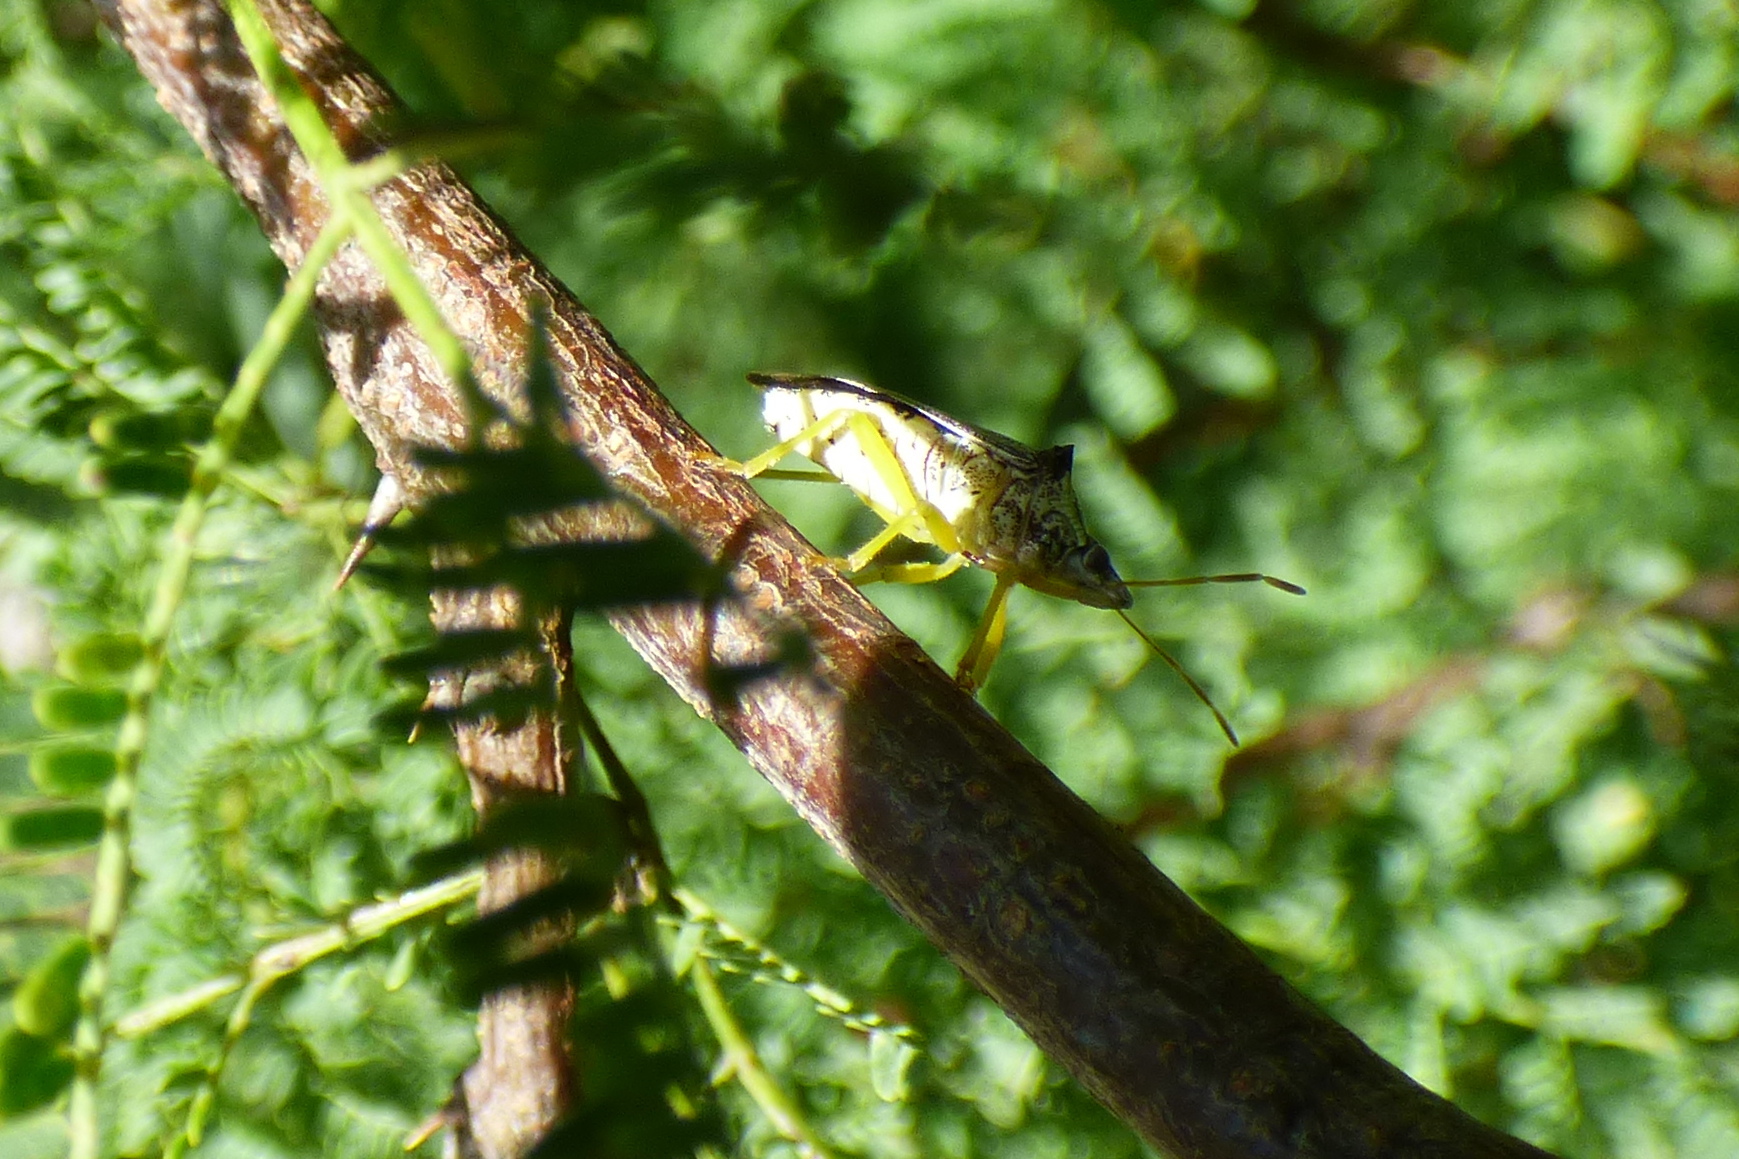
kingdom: Animalia
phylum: Arthropoda
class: Insecta
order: Hemiptera
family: Pentatomidae
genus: Podisus
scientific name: Podisus nigrispinus
